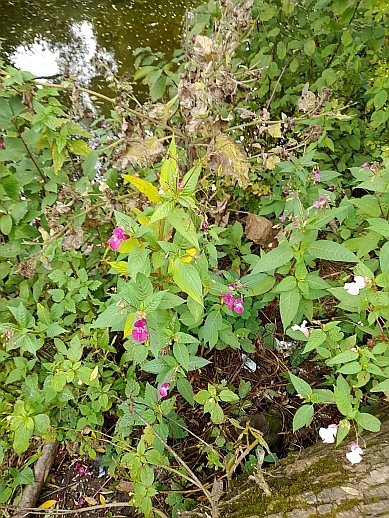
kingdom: Plantae
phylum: Tracheophyta
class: Magnoliopsida
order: Ericales
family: Balsaminaceae
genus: Impatiens
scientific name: Impatiens glandulifera
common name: Himalayan balsam
